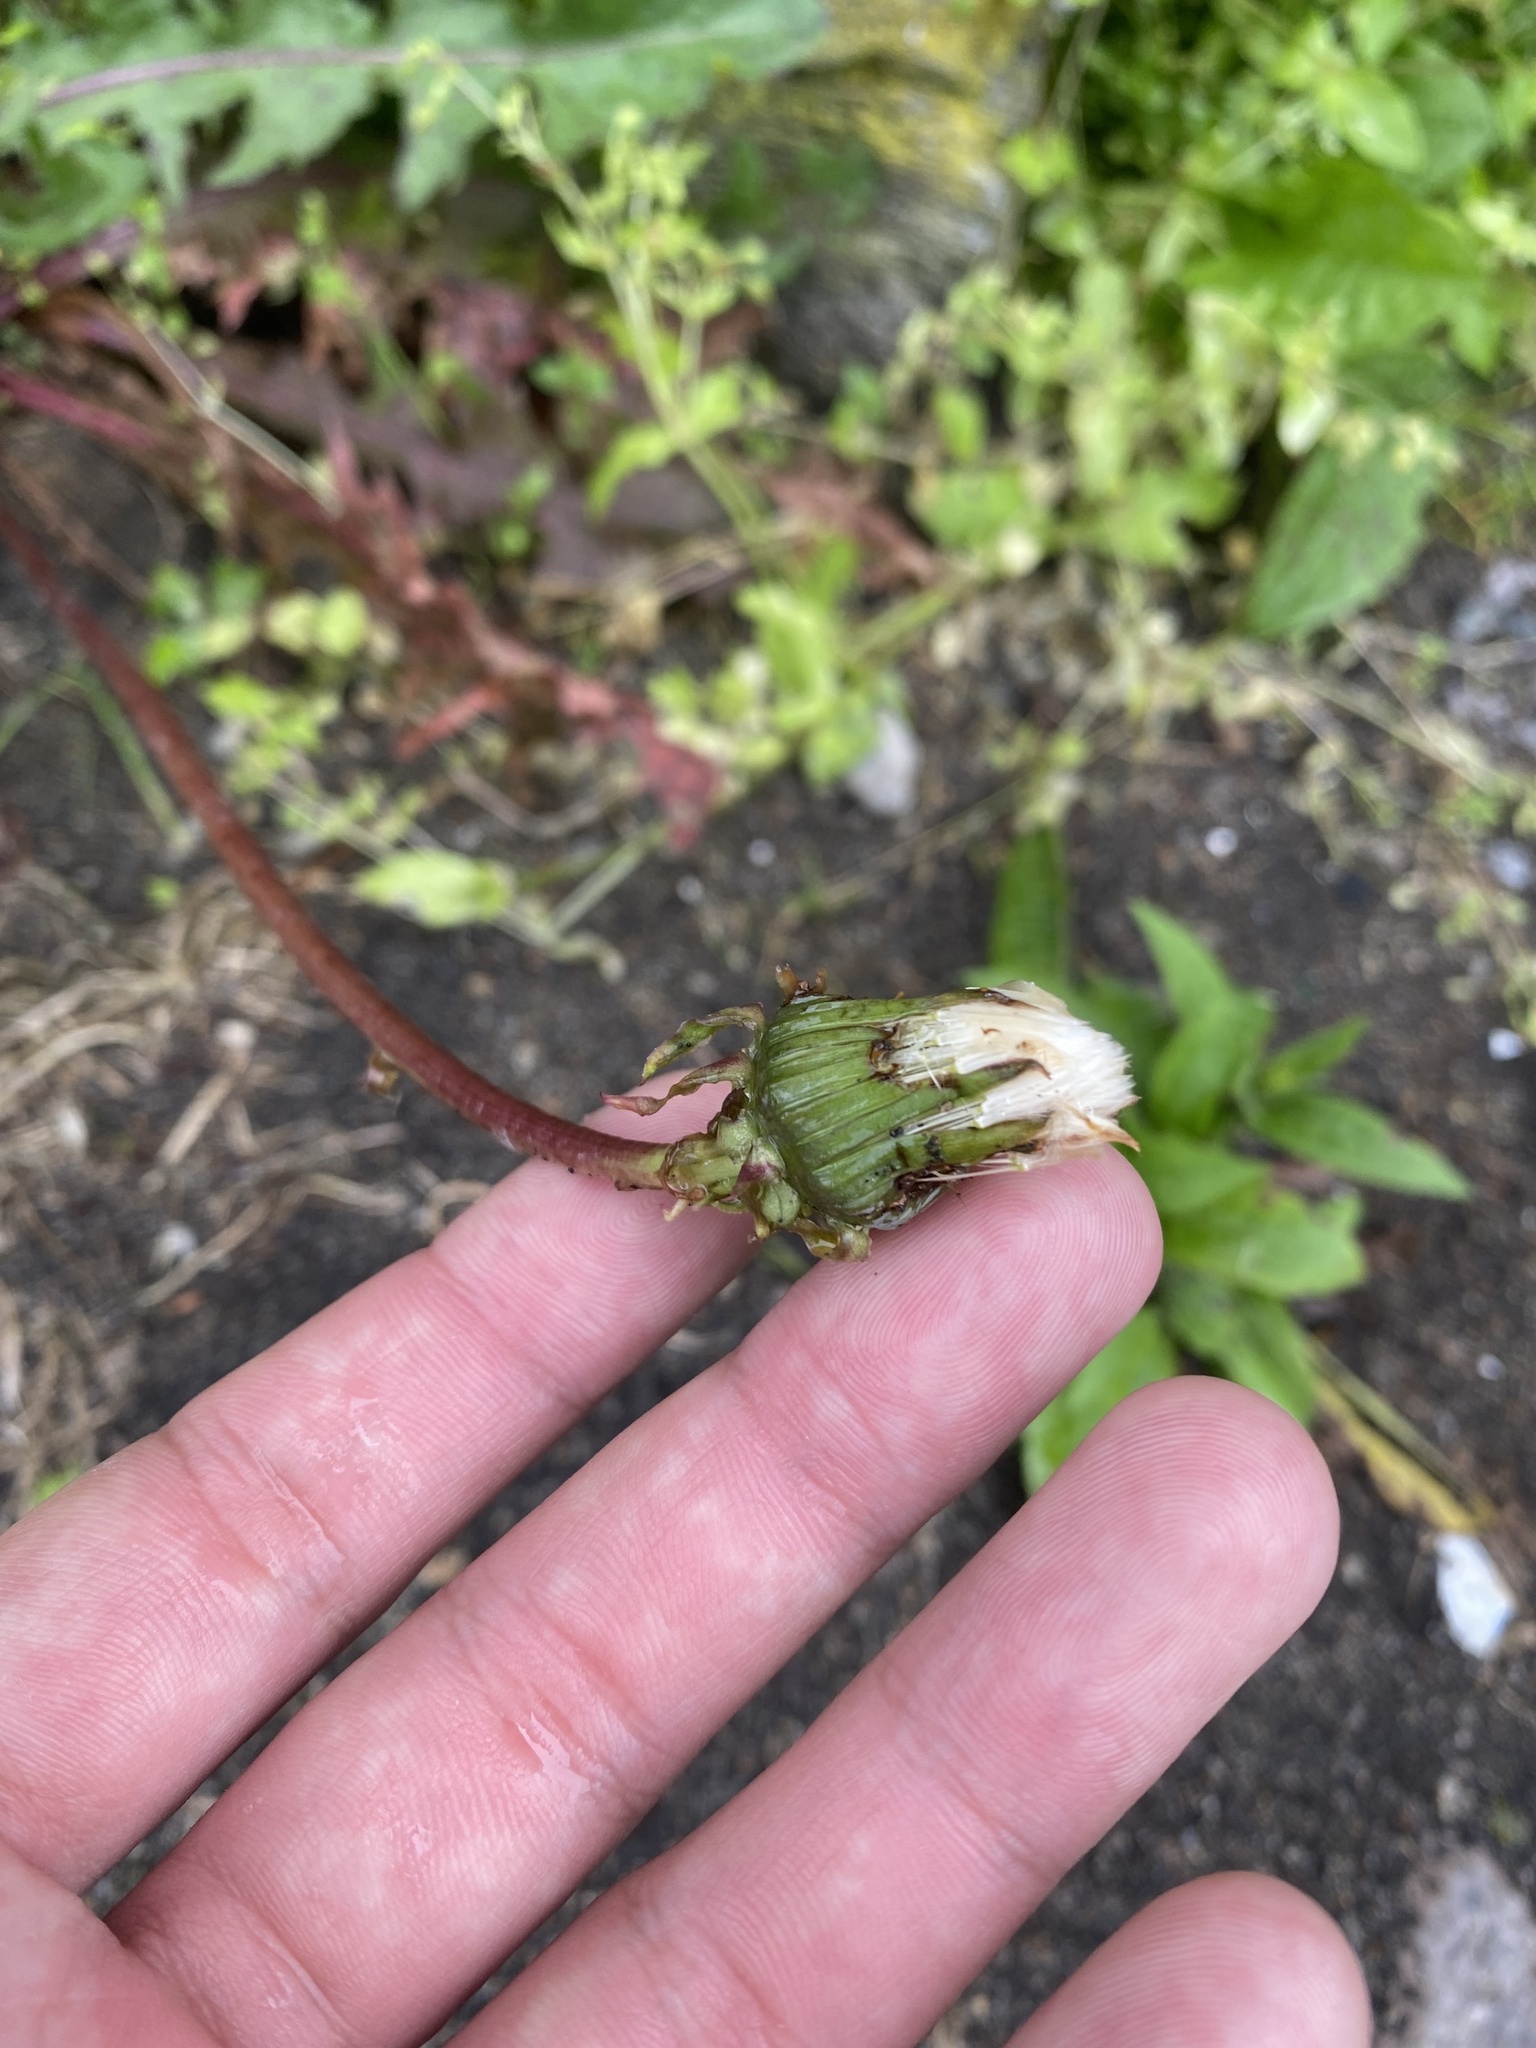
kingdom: Plantae
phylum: Tracheophyta
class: Magnoliopsida
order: Asterales
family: Asteraceae
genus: Taraxacum
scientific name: Taraxacum officinale
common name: Common dandelion
